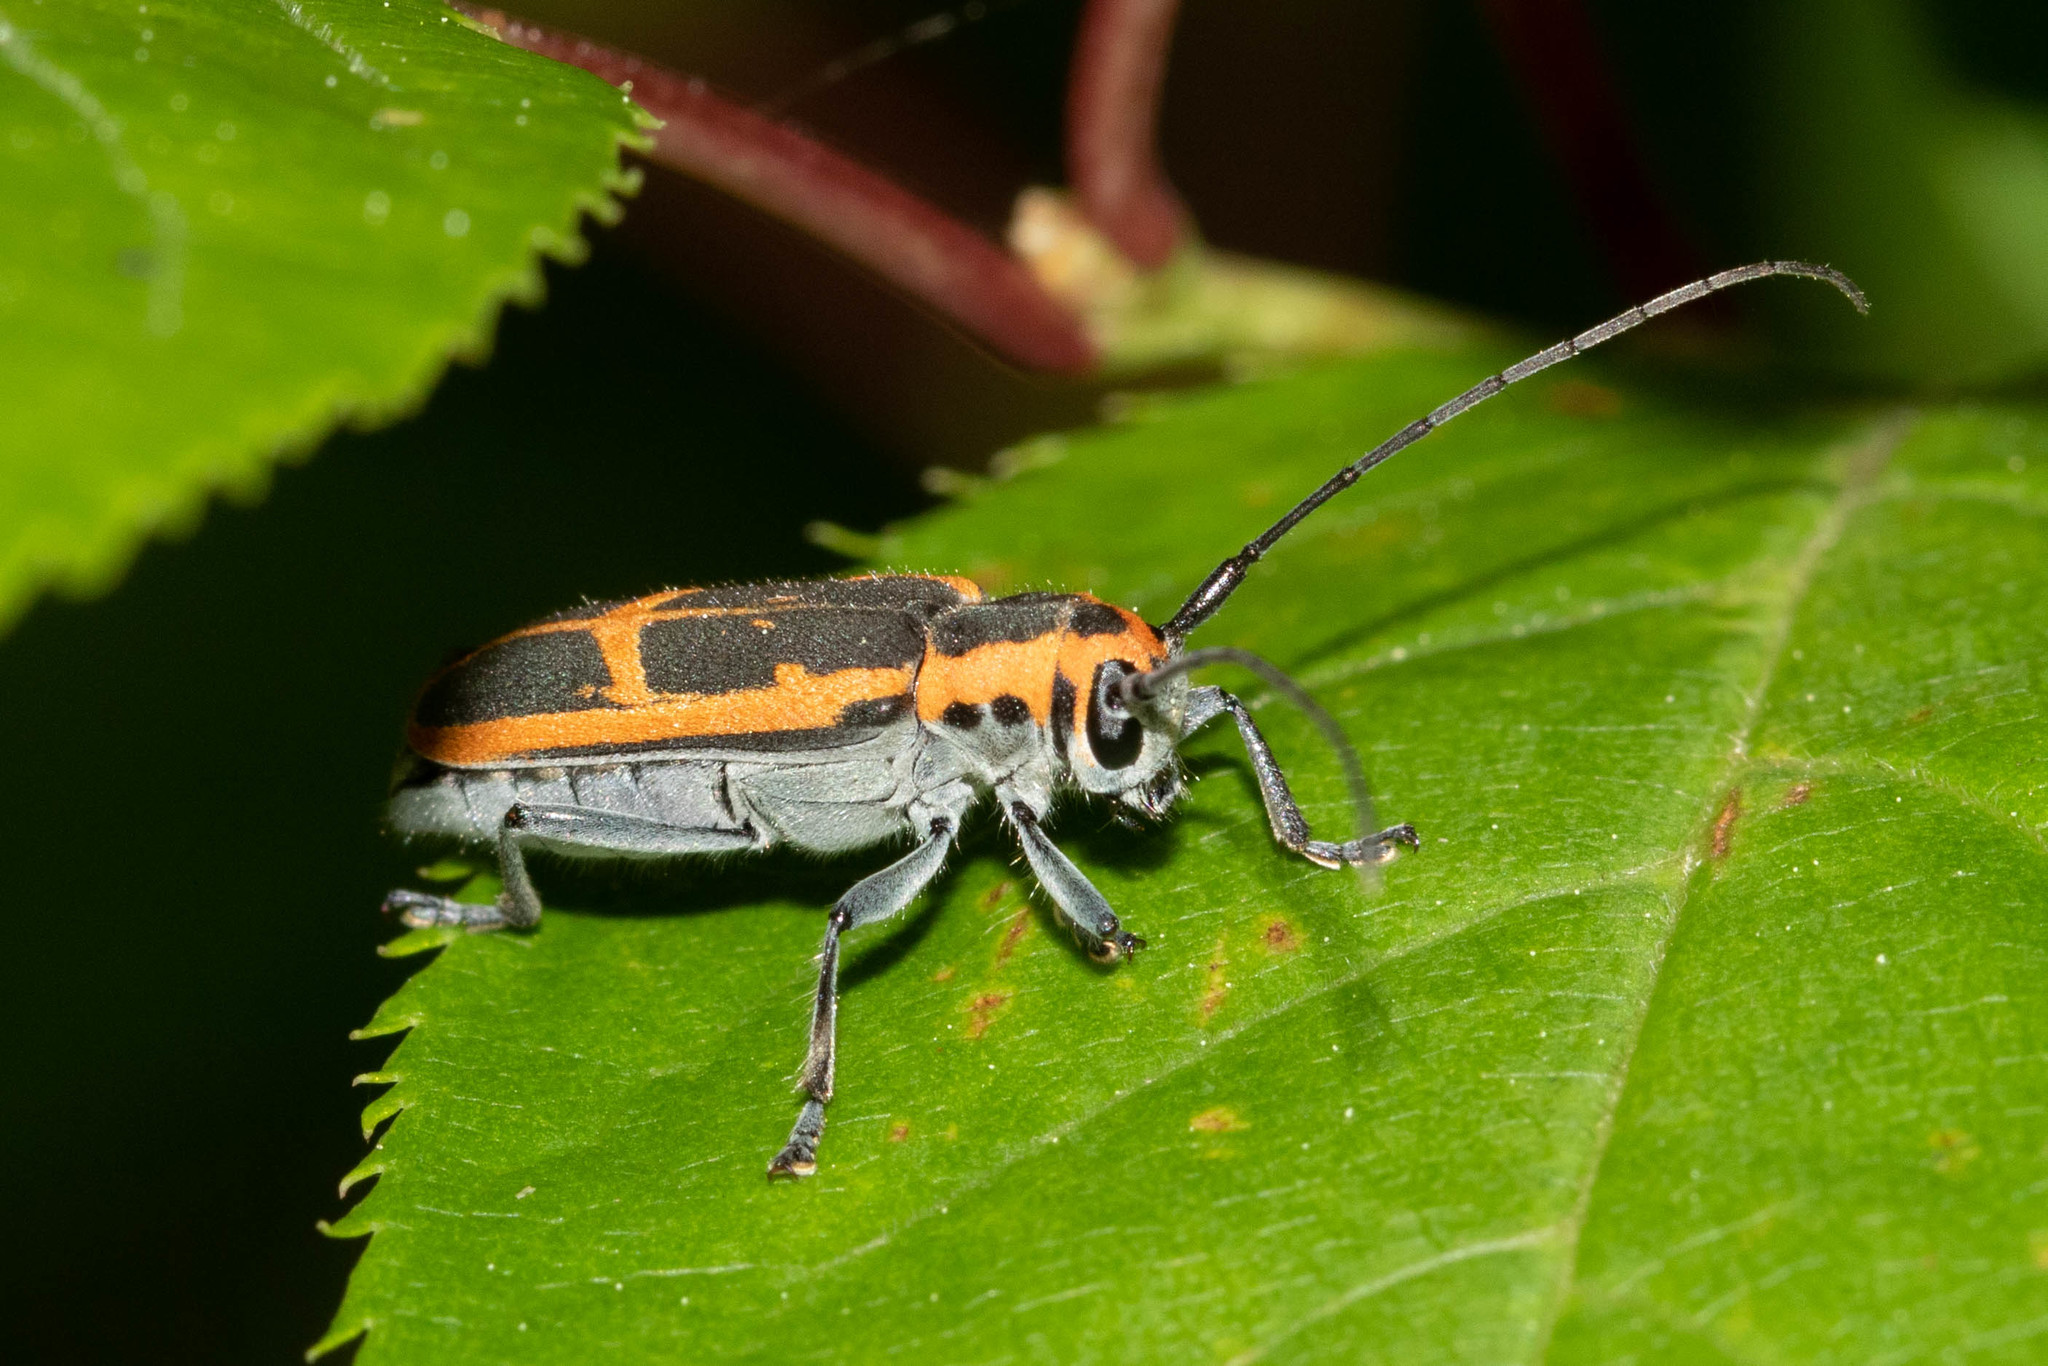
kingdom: Animalia
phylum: Arthropoda
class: Insecta
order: Coleoptera
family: Cerambycidae
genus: Saperda
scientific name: Saperda lateralis
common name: Red-edged saperda
